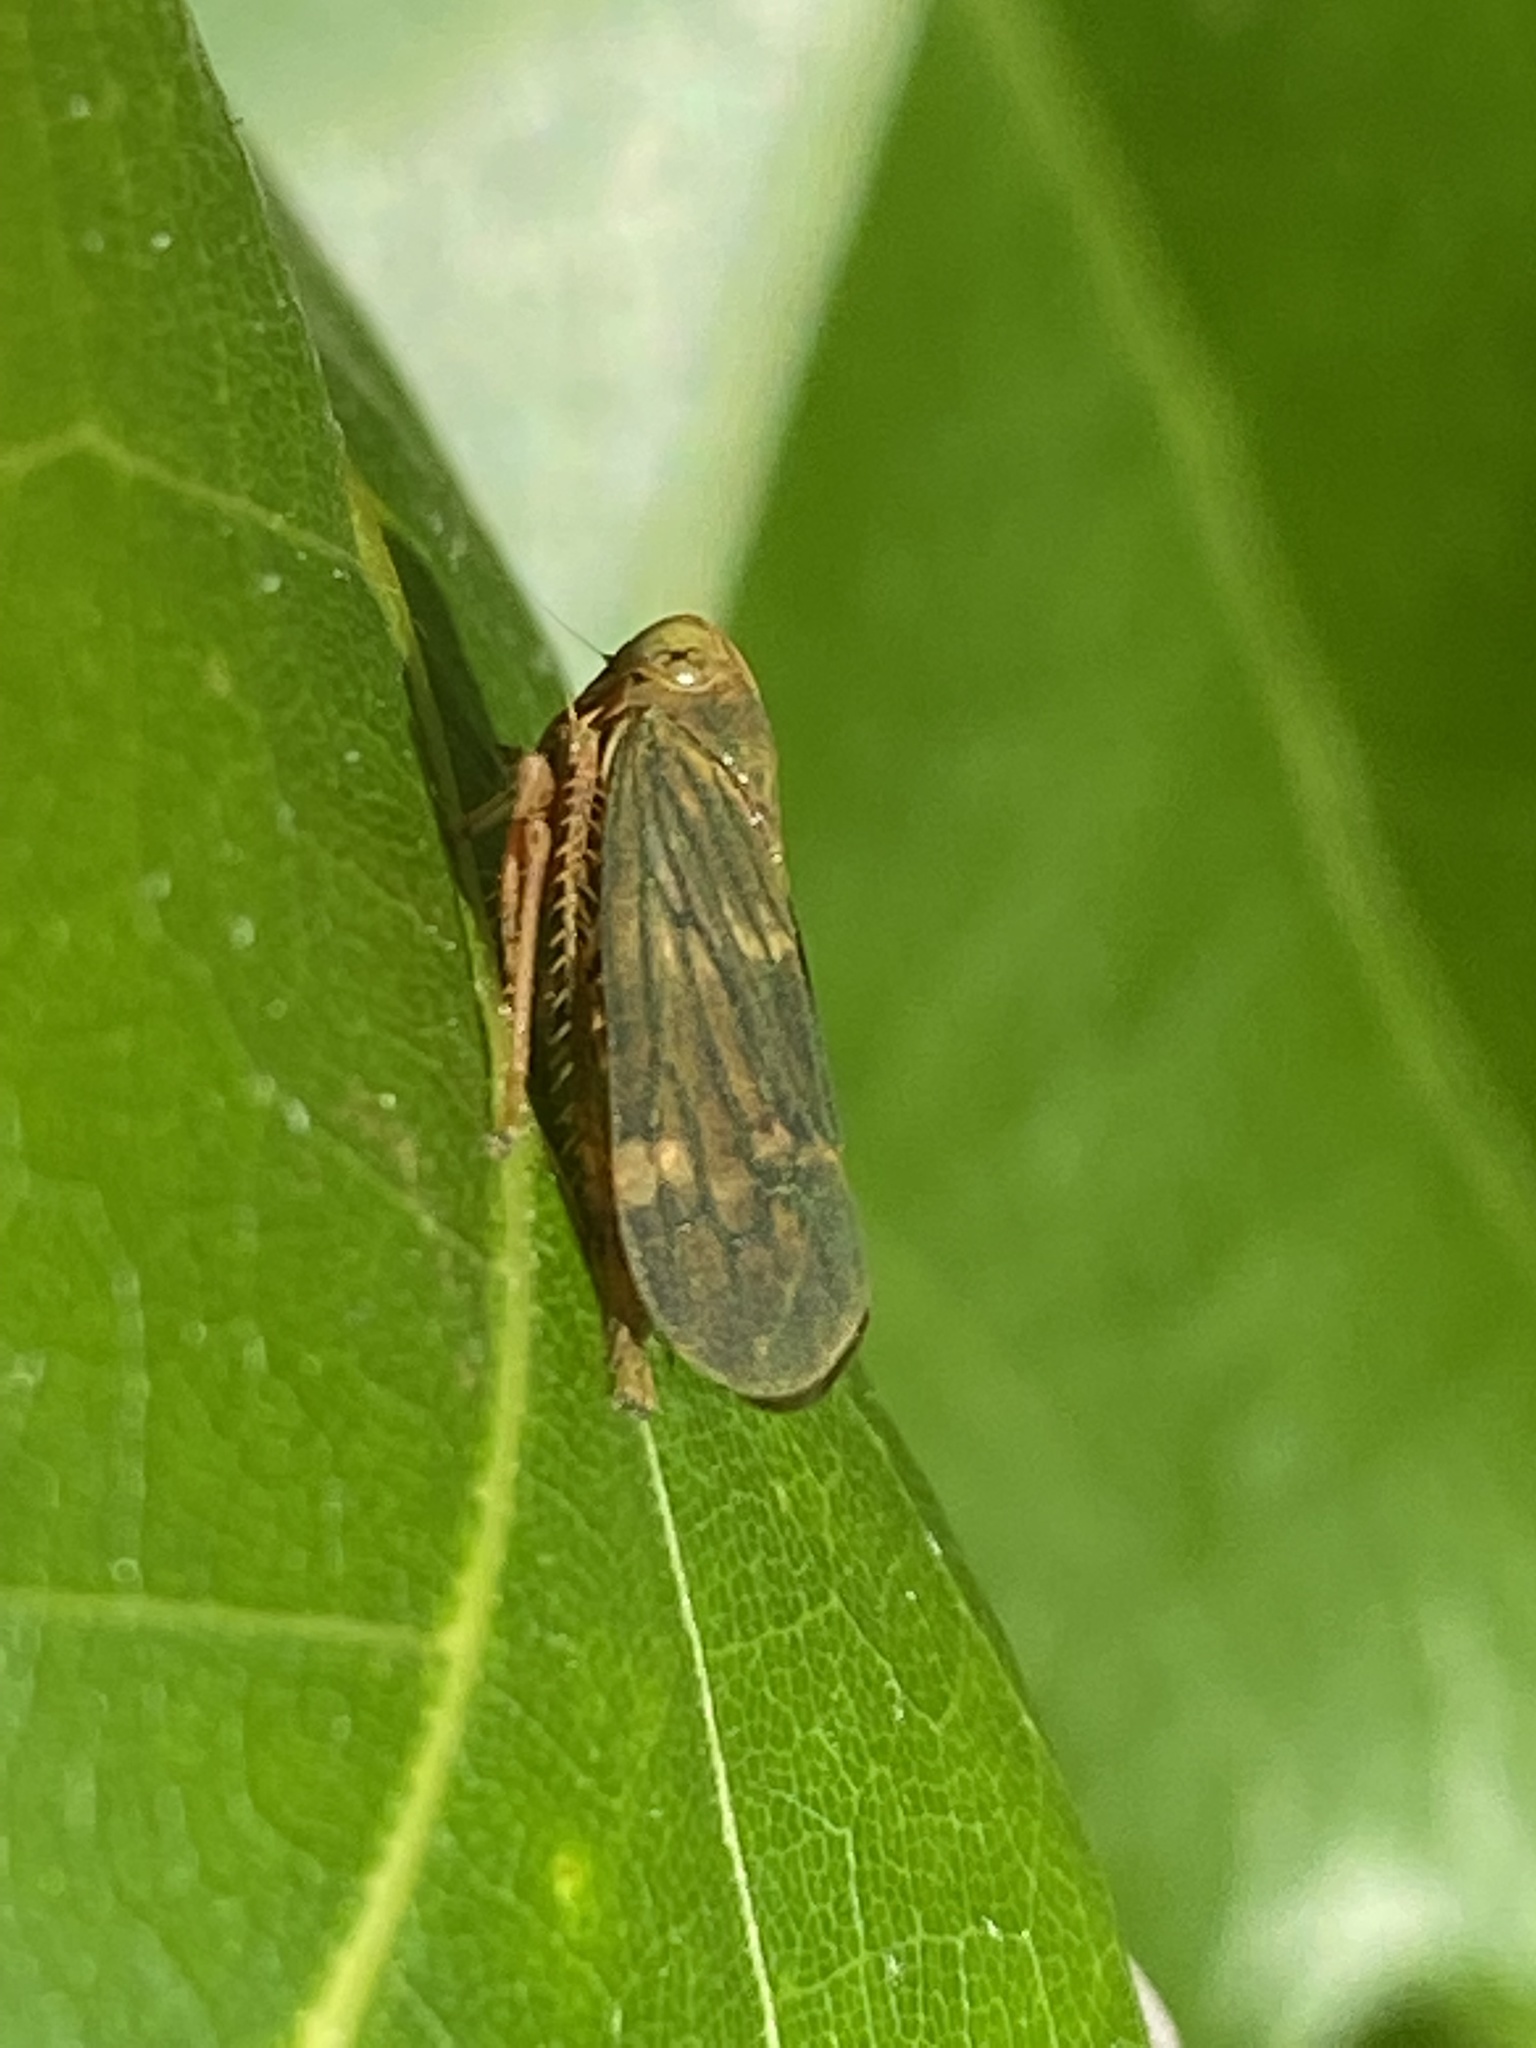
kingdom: Animalia
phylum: Arthropoda
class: Insecta
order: Hemiptera
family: Cicadellidae
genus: Jikradia
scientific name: Jikradia olitoria
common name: Coppery leafhopper
